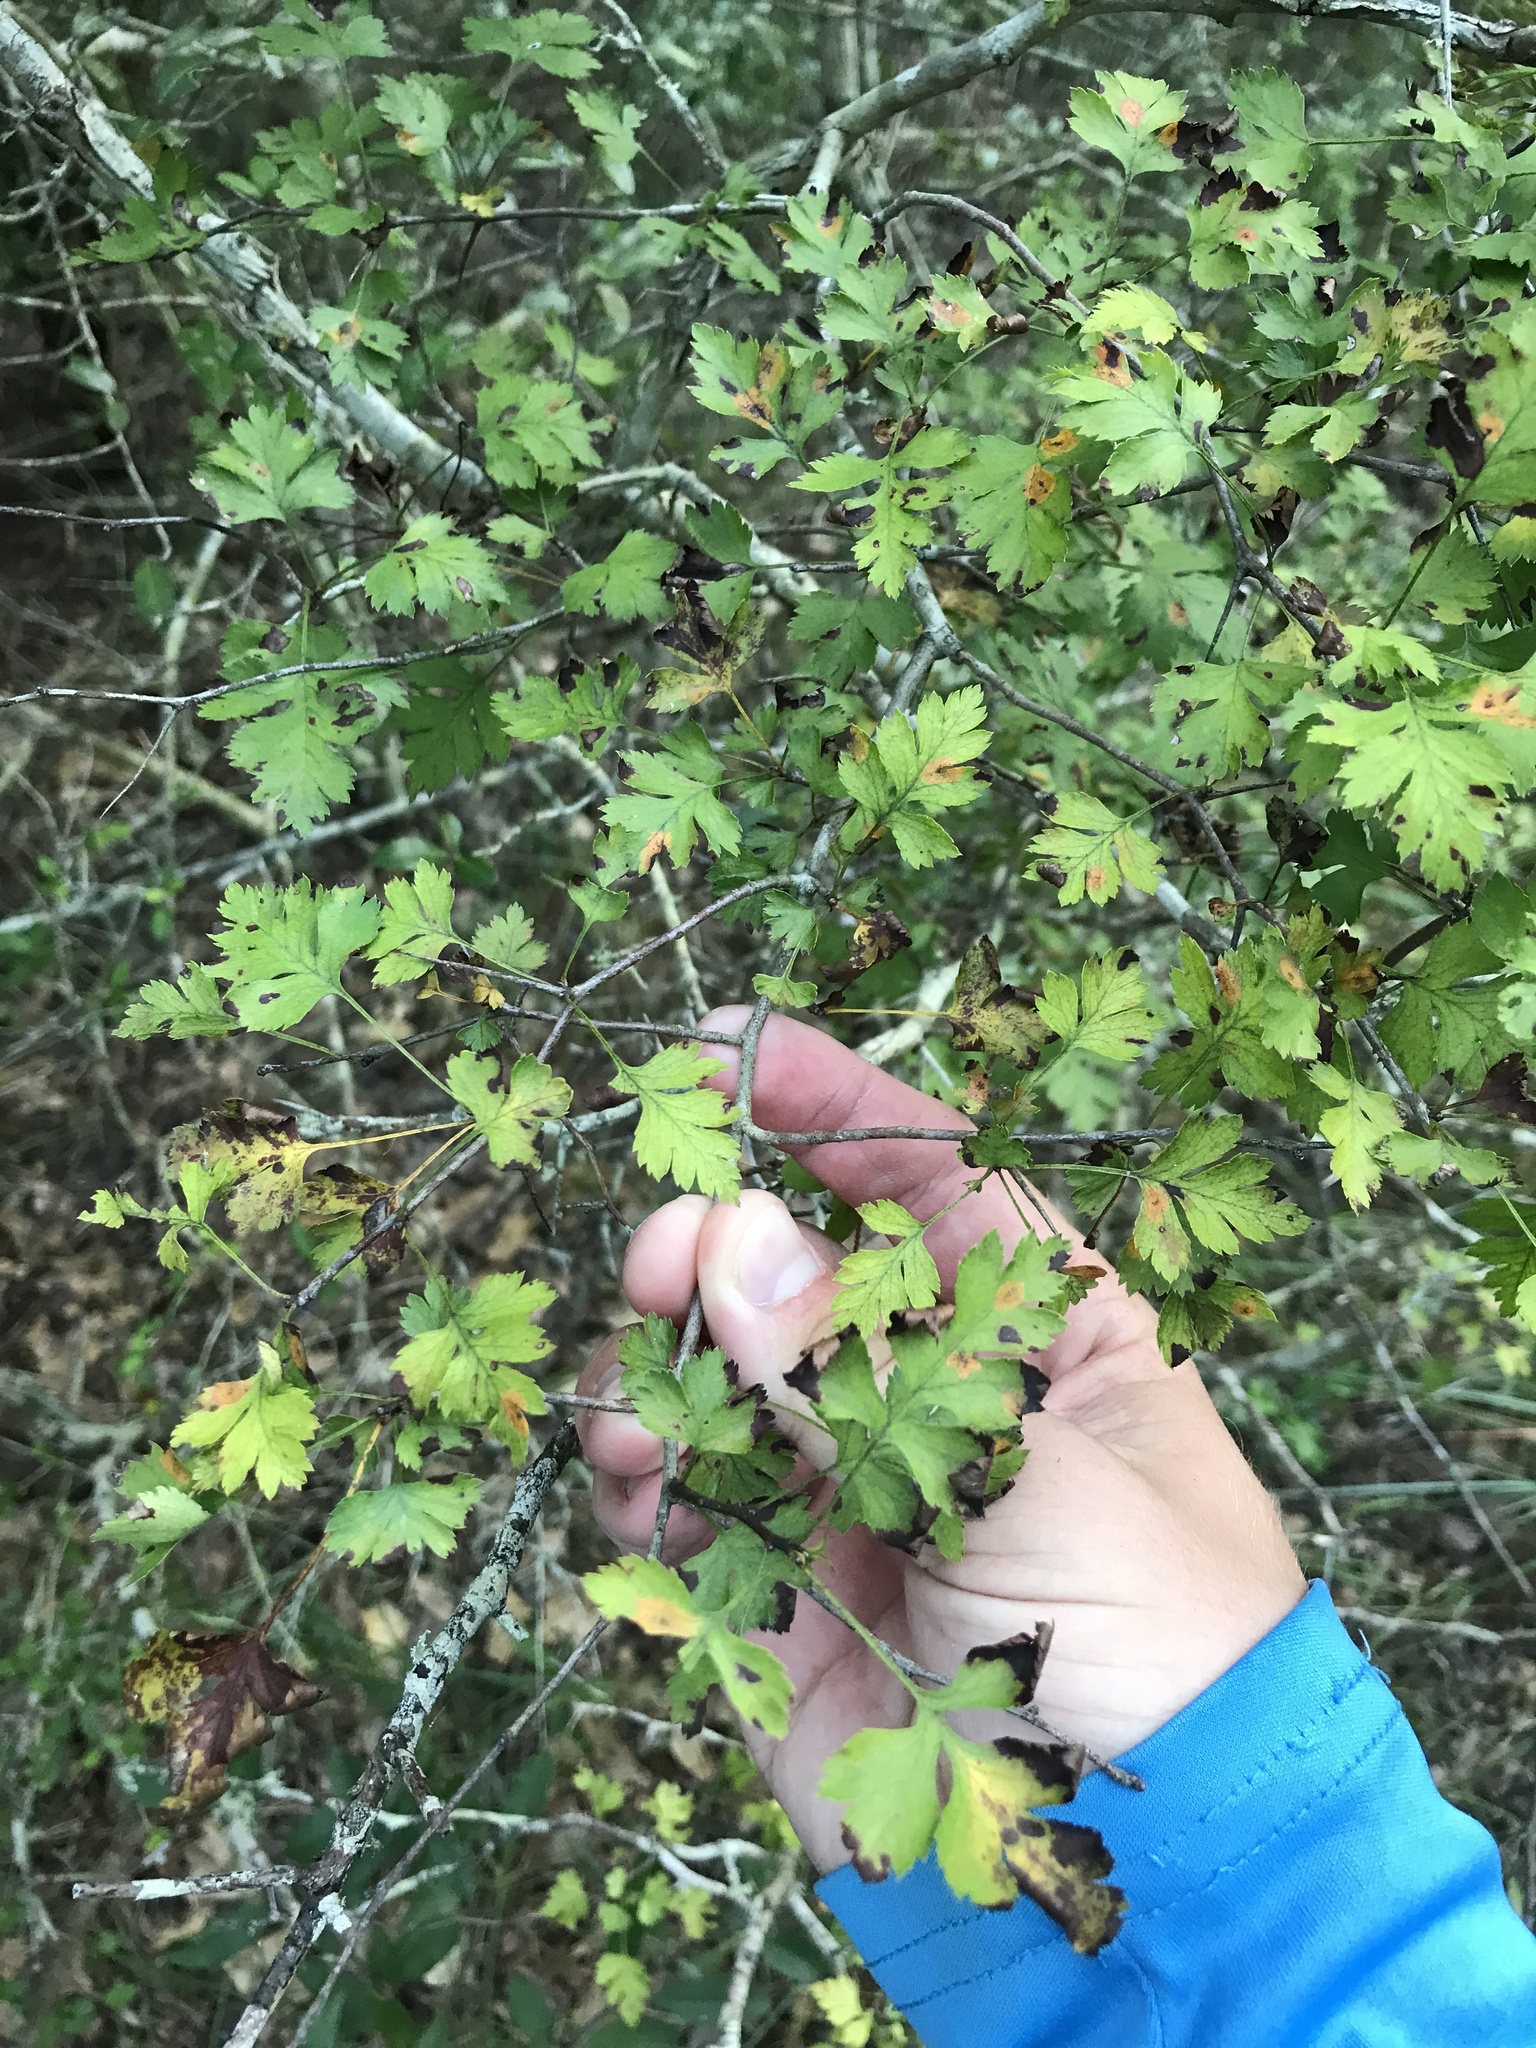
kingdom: Plantae
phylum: Tracheophyta
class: Magnoliopsida
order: Rosales
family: Rosaceae
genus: Crataegus
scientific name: Crataegus marshallii
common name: Parsley-hawthorn
